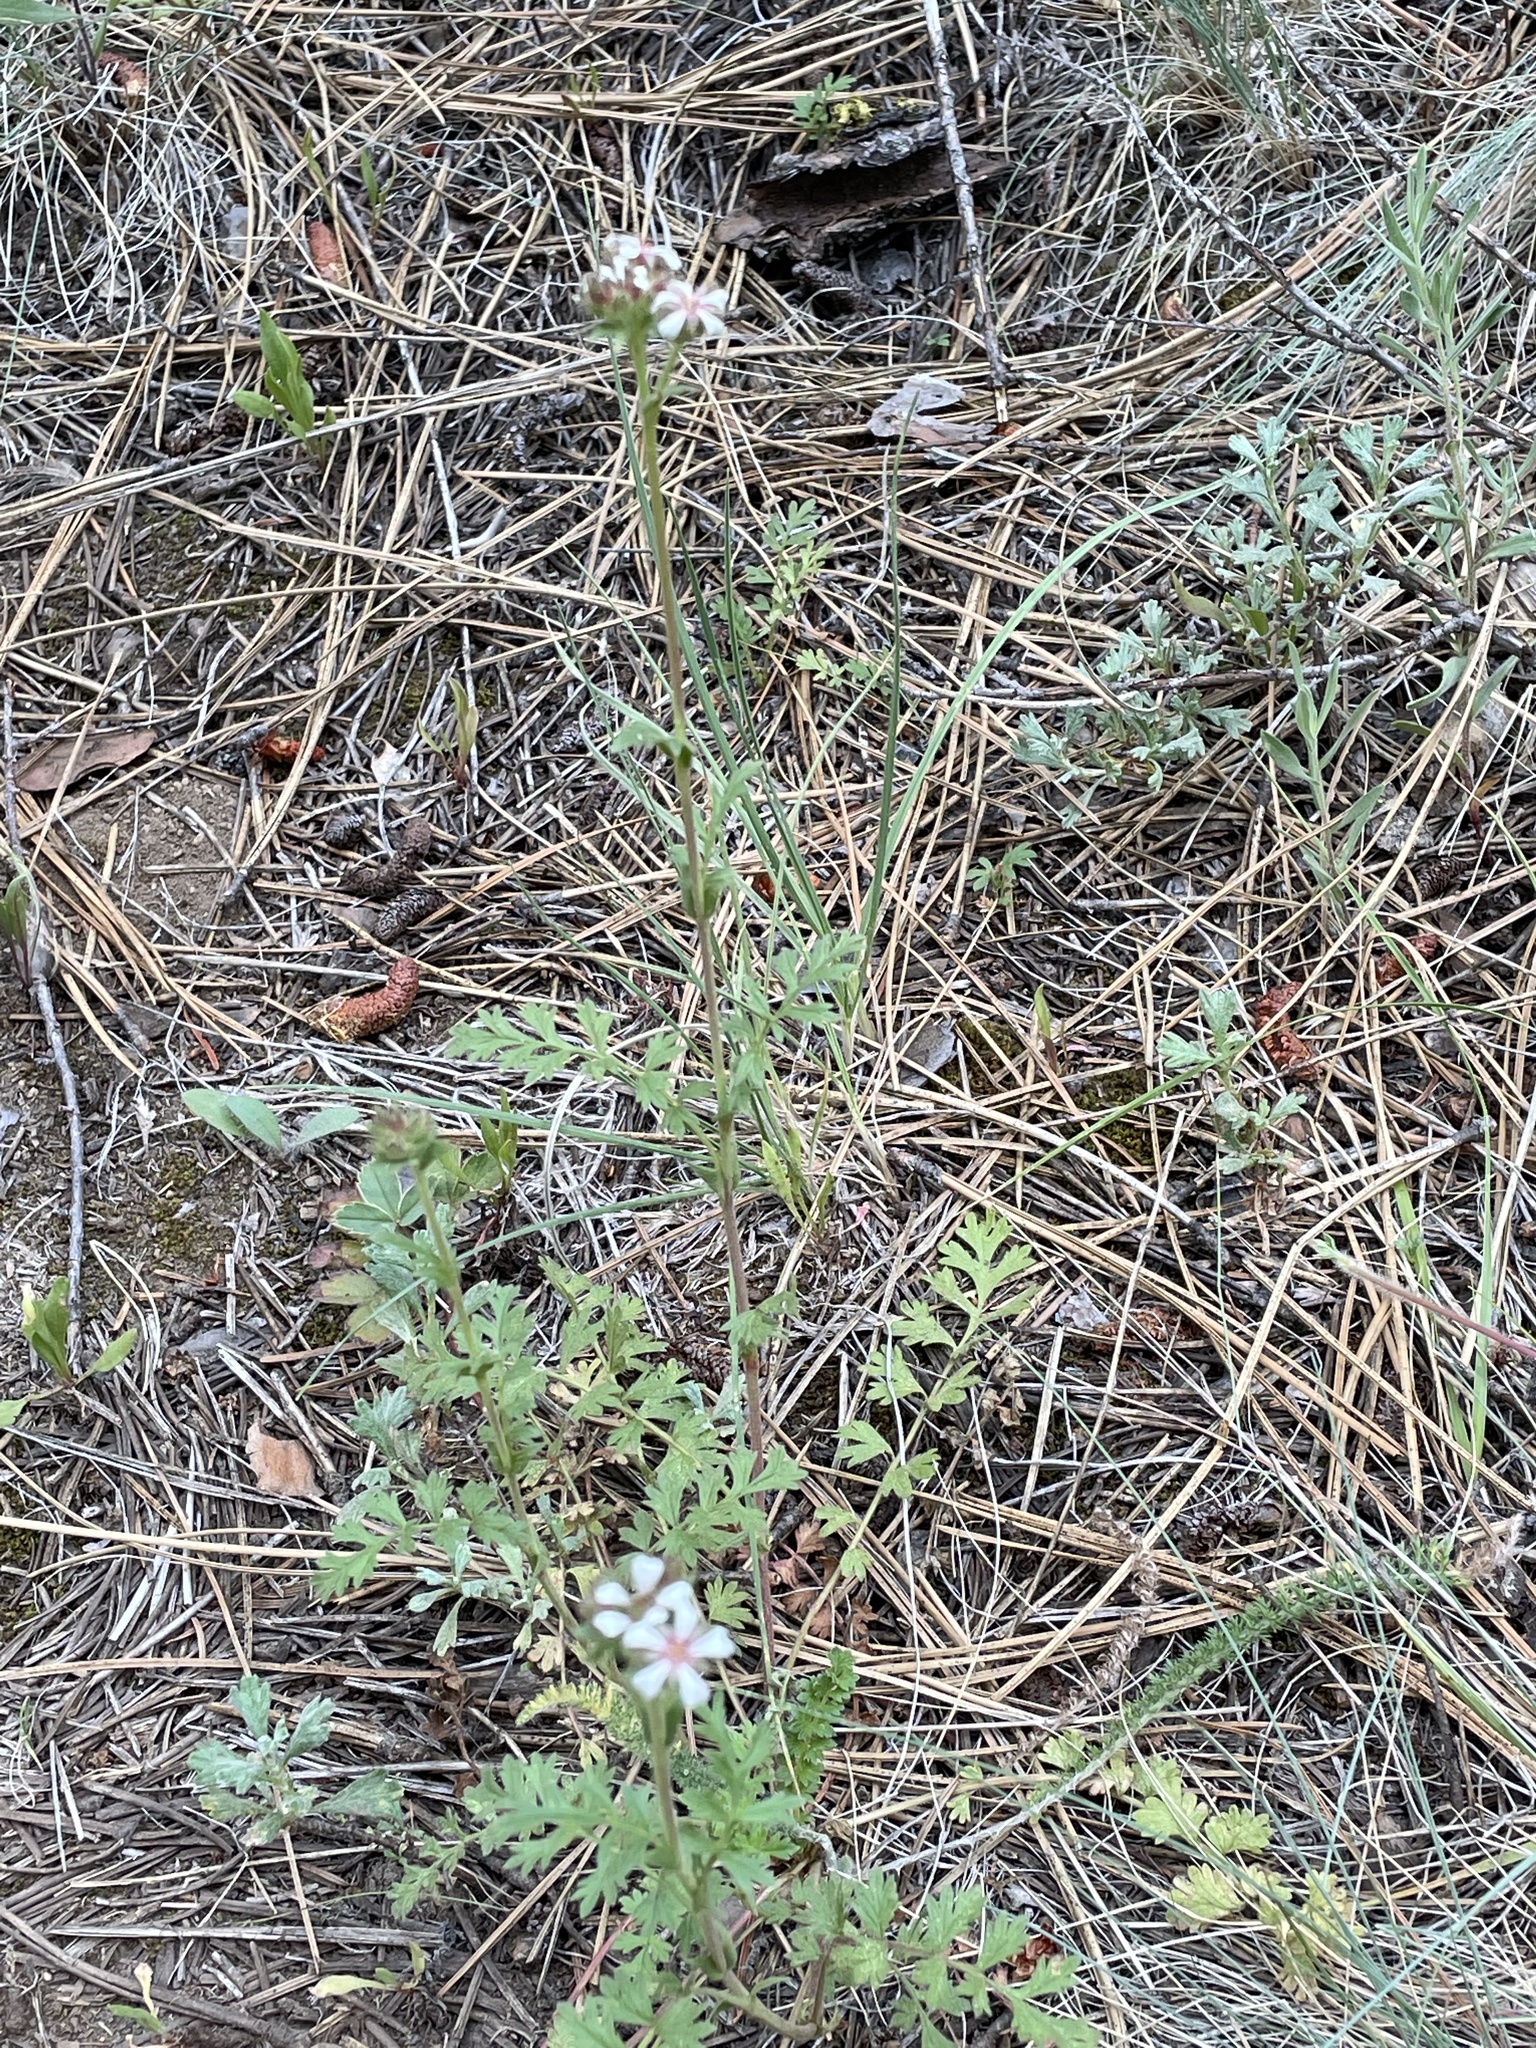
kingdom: Plantae
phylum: Tracheophyta
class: Magnoliopsida
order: Rosales
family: Rosaceae
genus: Potentilla
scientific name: Potentilla douglasii
